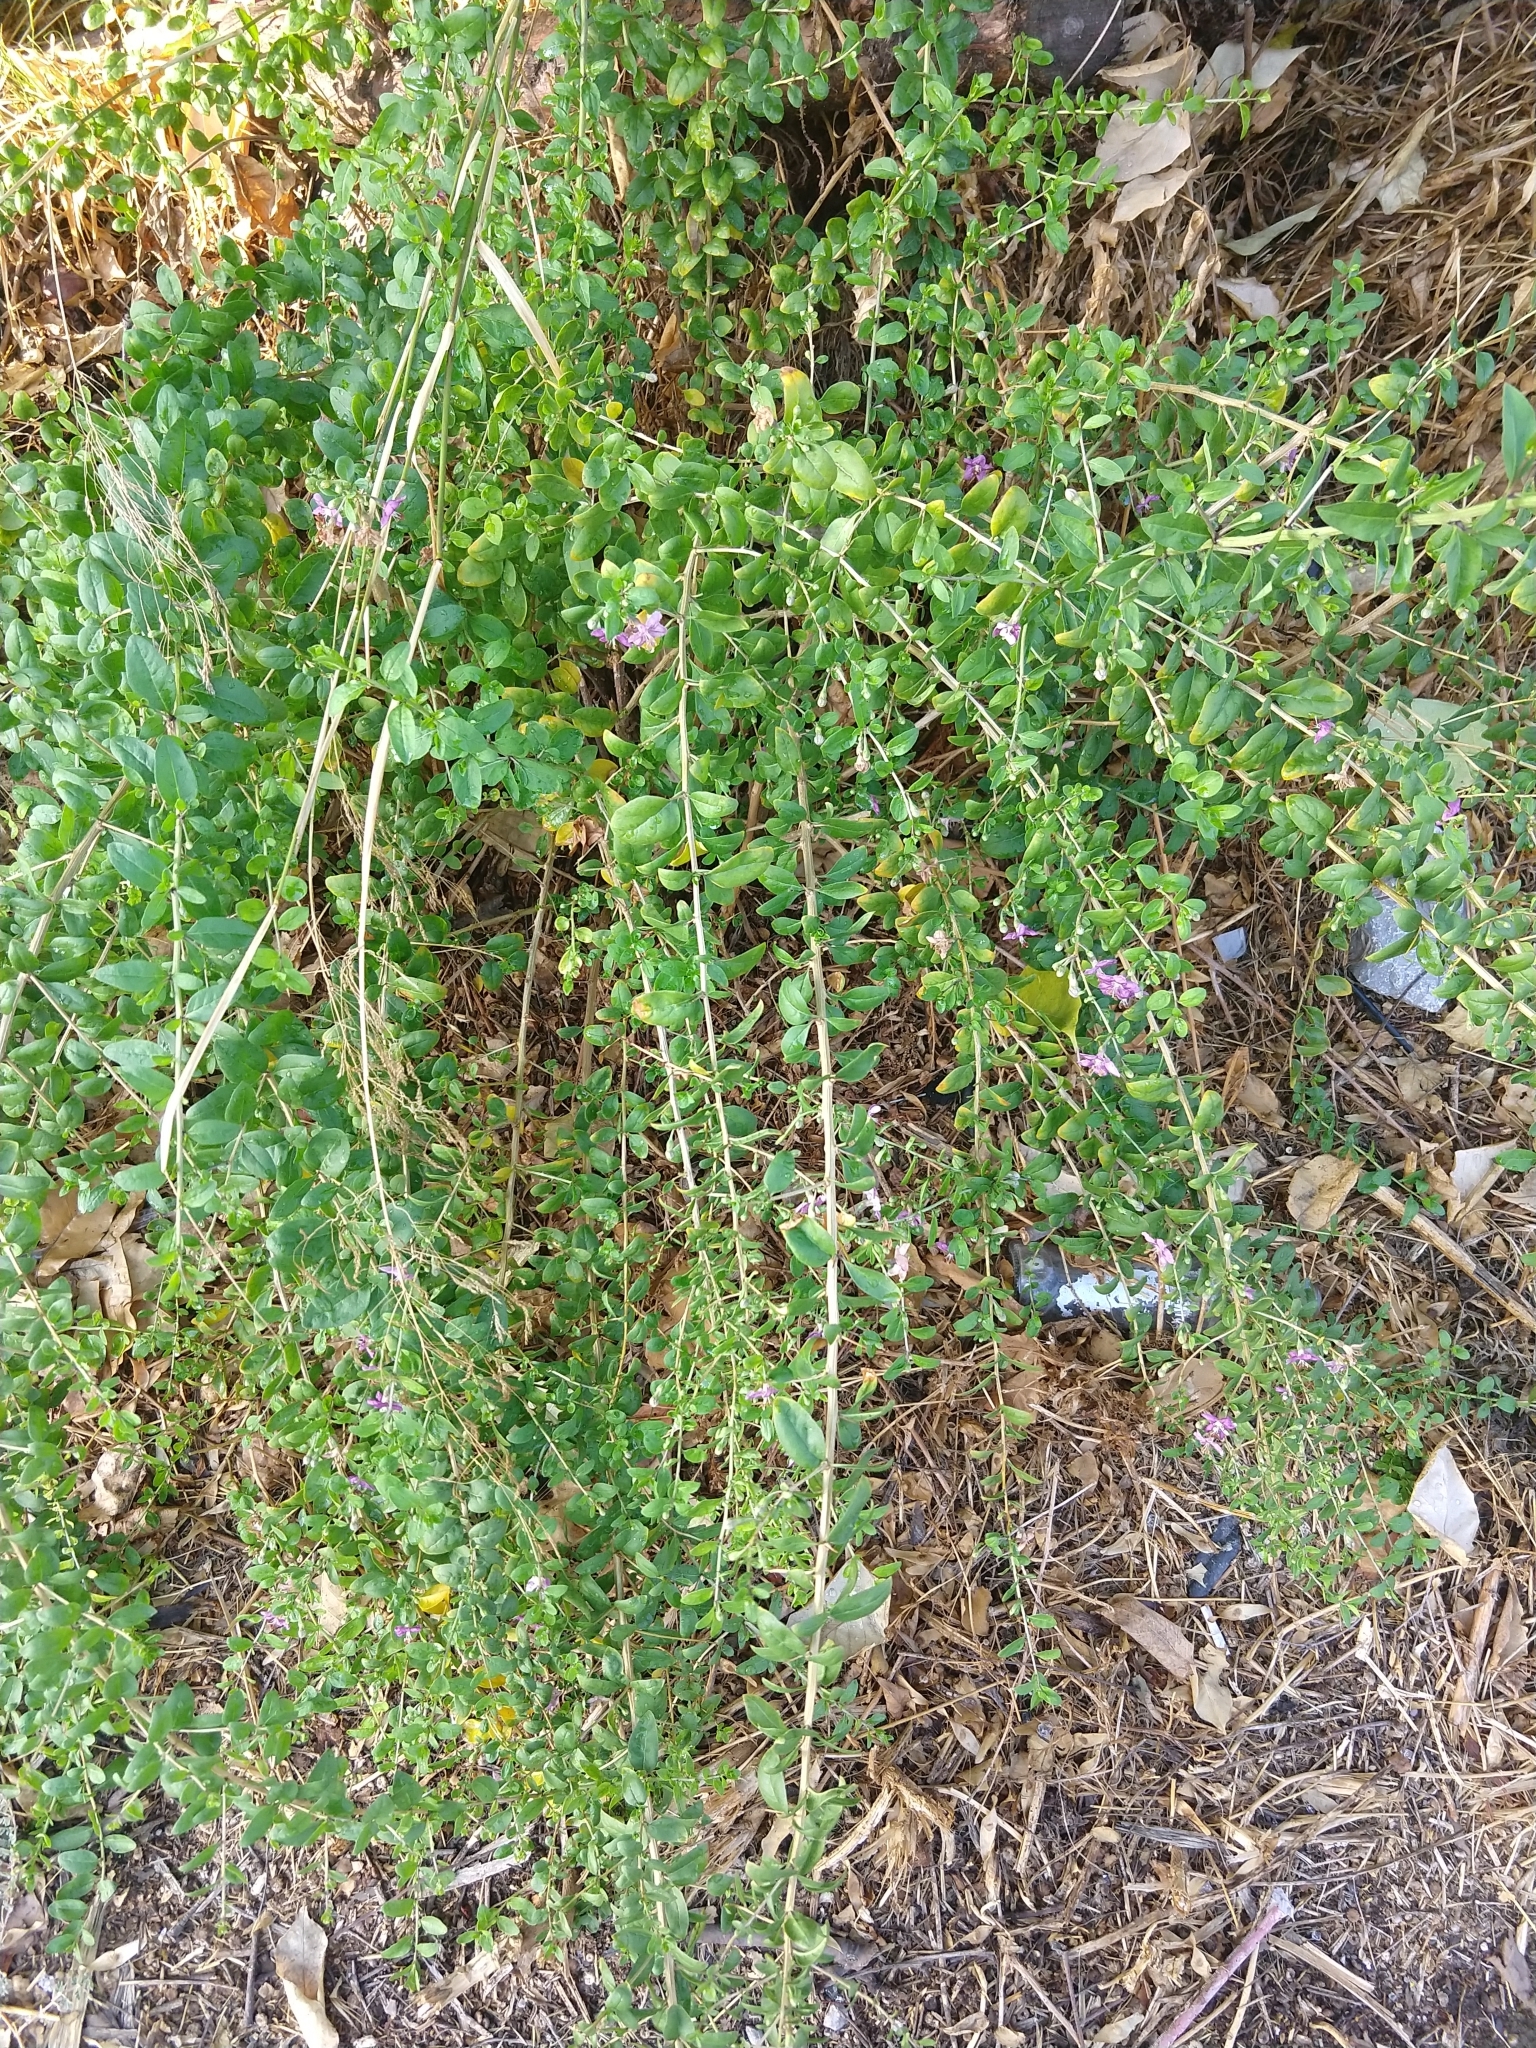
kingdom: Plantae
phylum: Tracheophyta
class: Magnoliopsida
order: Solanales
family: Solanaceae
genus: Lycium
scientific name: Lycium barbarum
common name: Duke of argyll's teaplant
